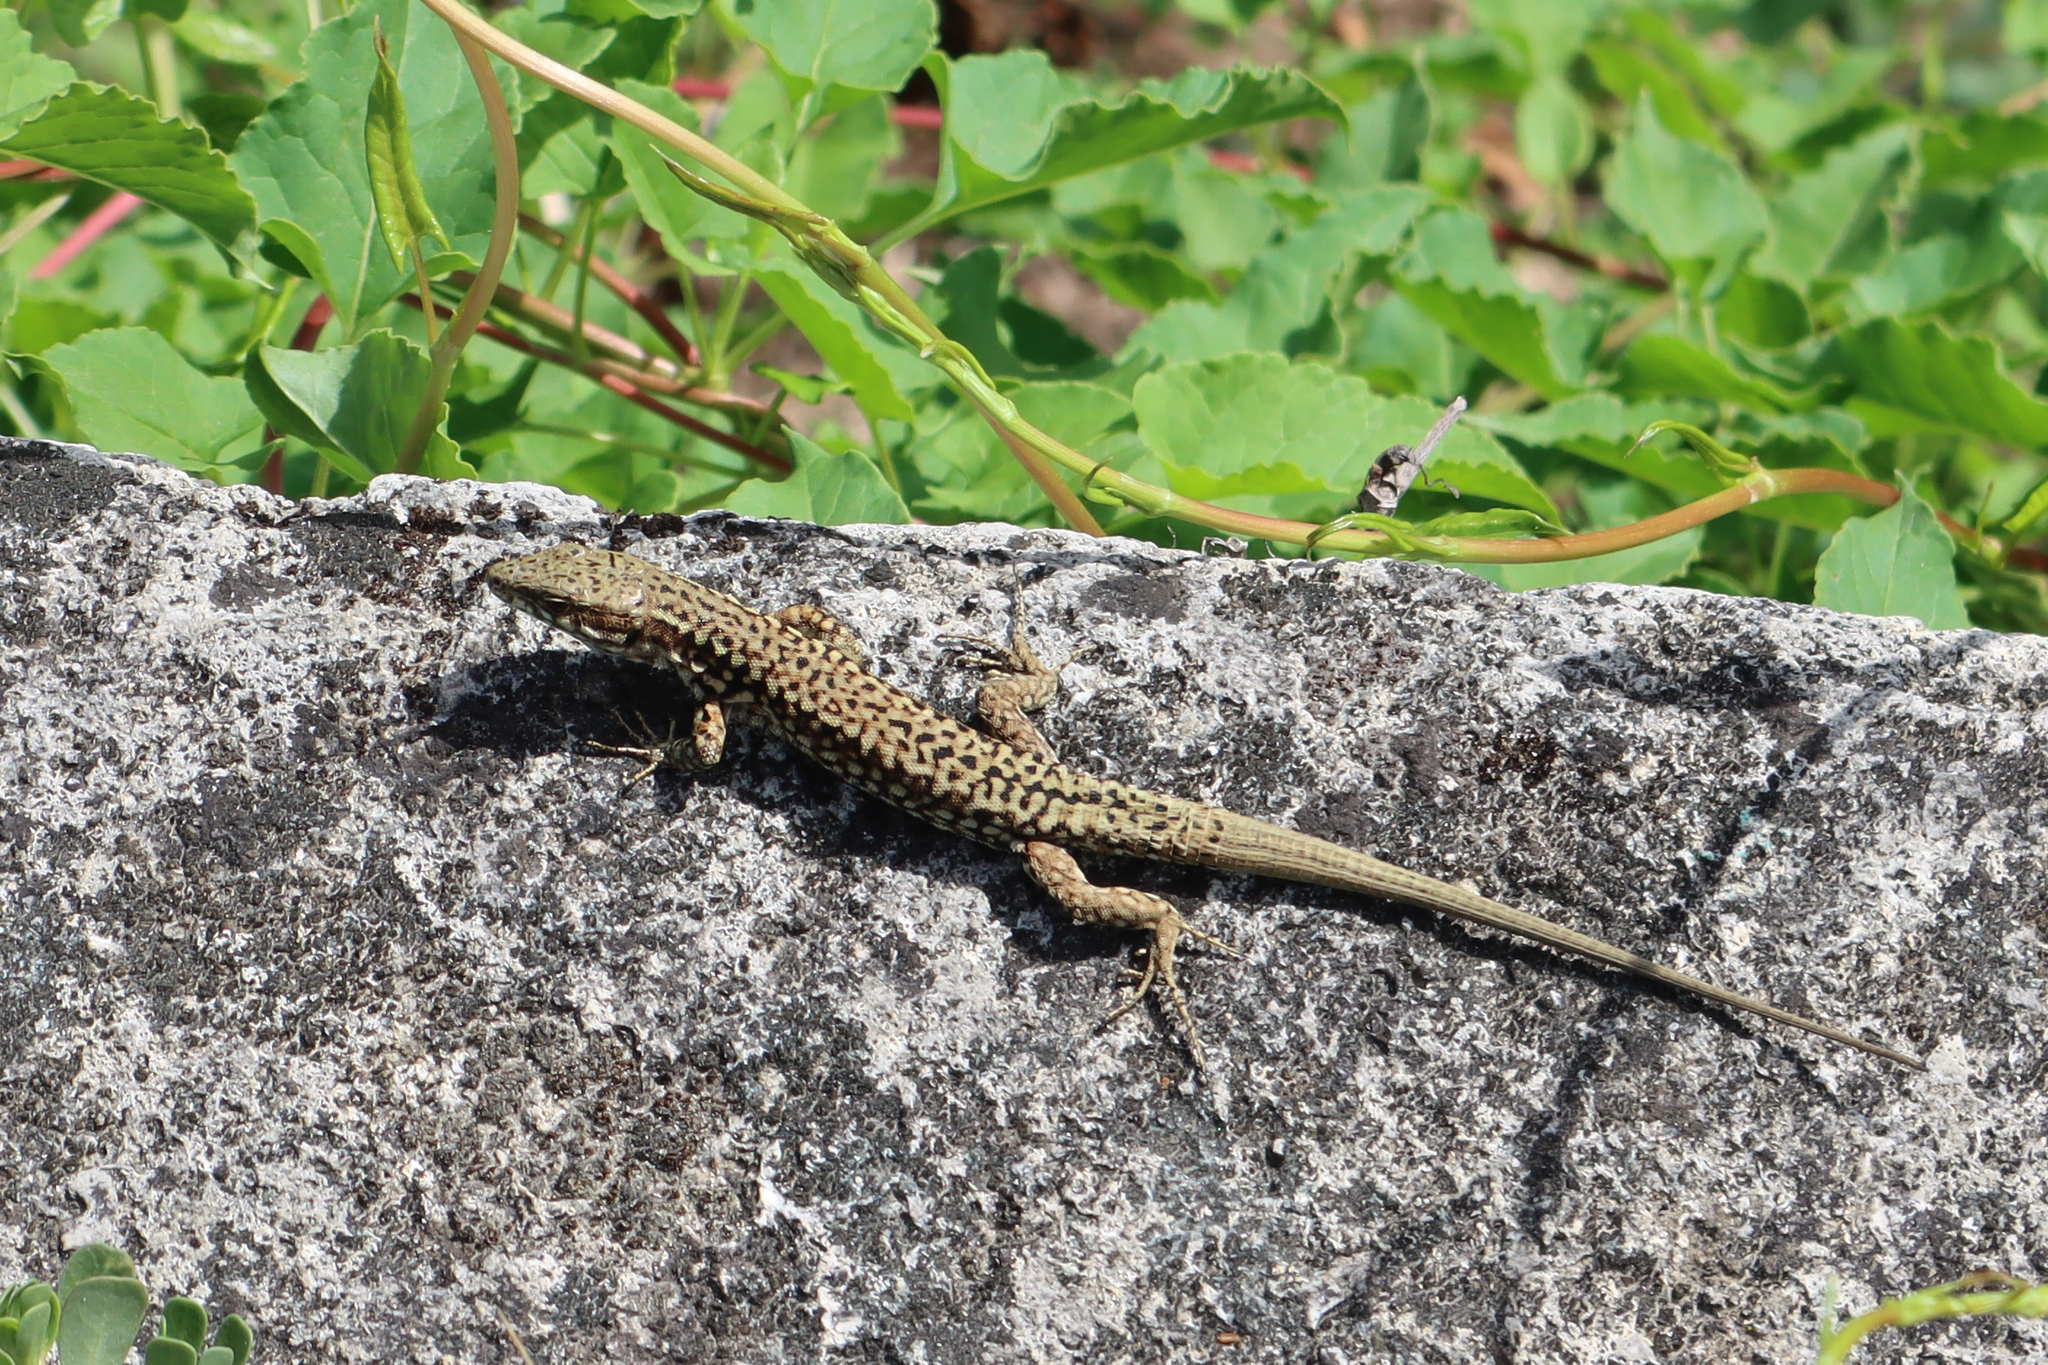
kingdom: Animalia
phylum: Chordata
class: Squamata
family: Lacertidae
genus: Podarcis
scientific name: Podarcis muralis
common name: Common wall lizard
